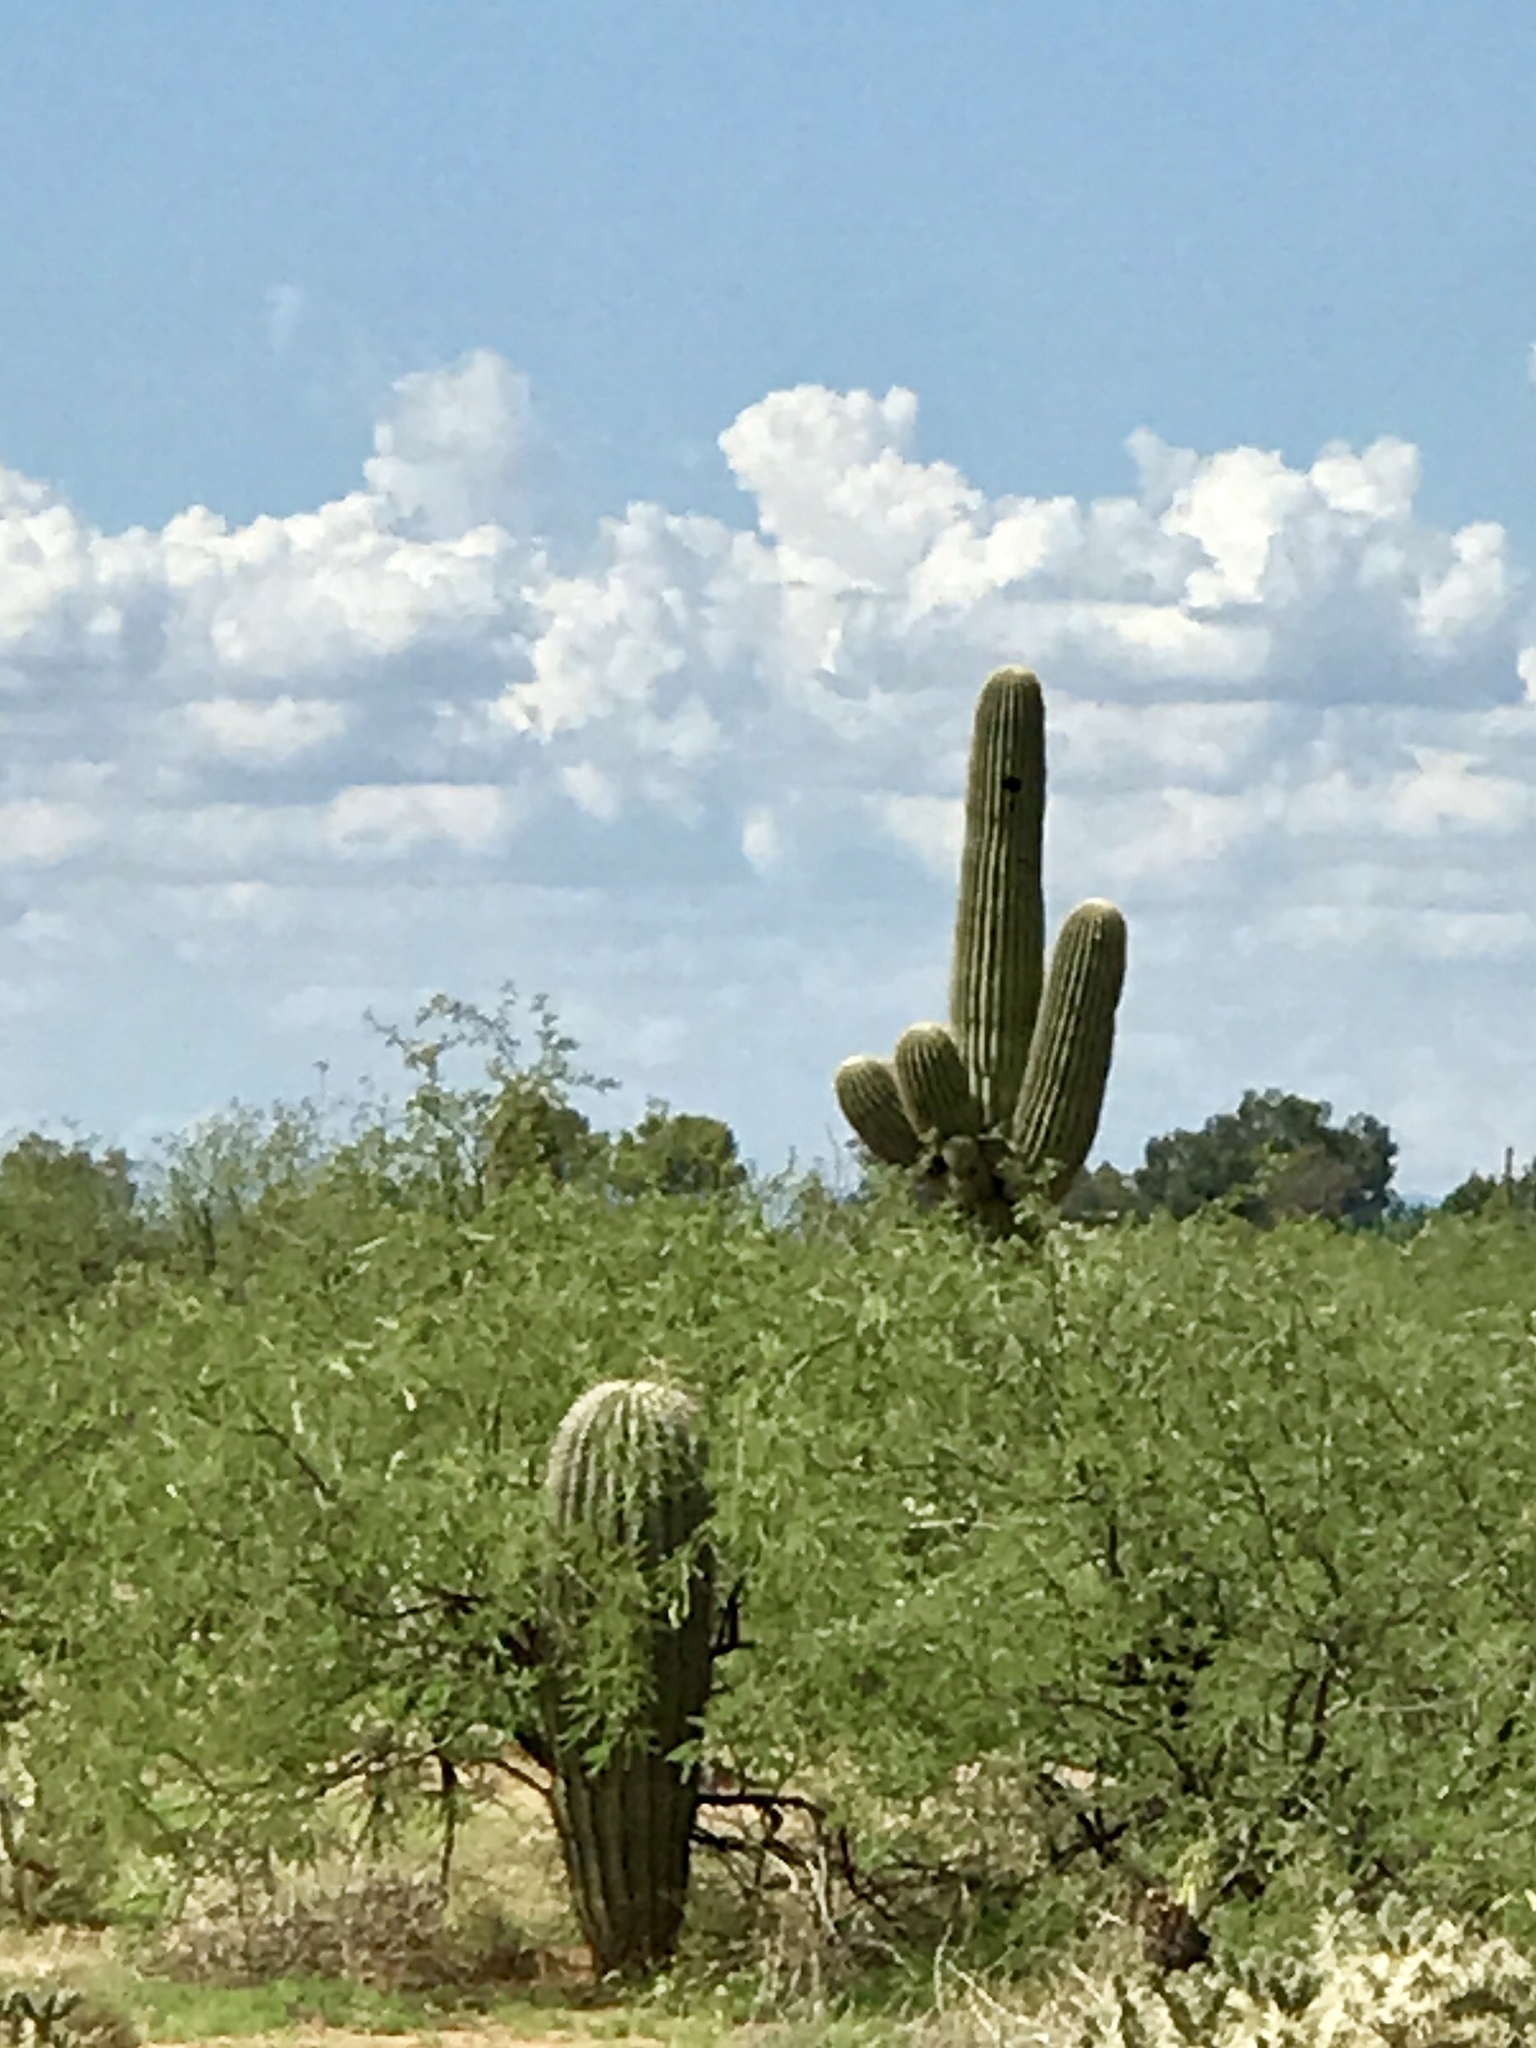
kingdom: Plantae
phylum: Tracheophyta
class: Magnoliopsida
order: Caryophyllales
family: Cactaceae
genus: Carnegiea
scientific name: Carnegiea gigantea
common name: Saguaro
